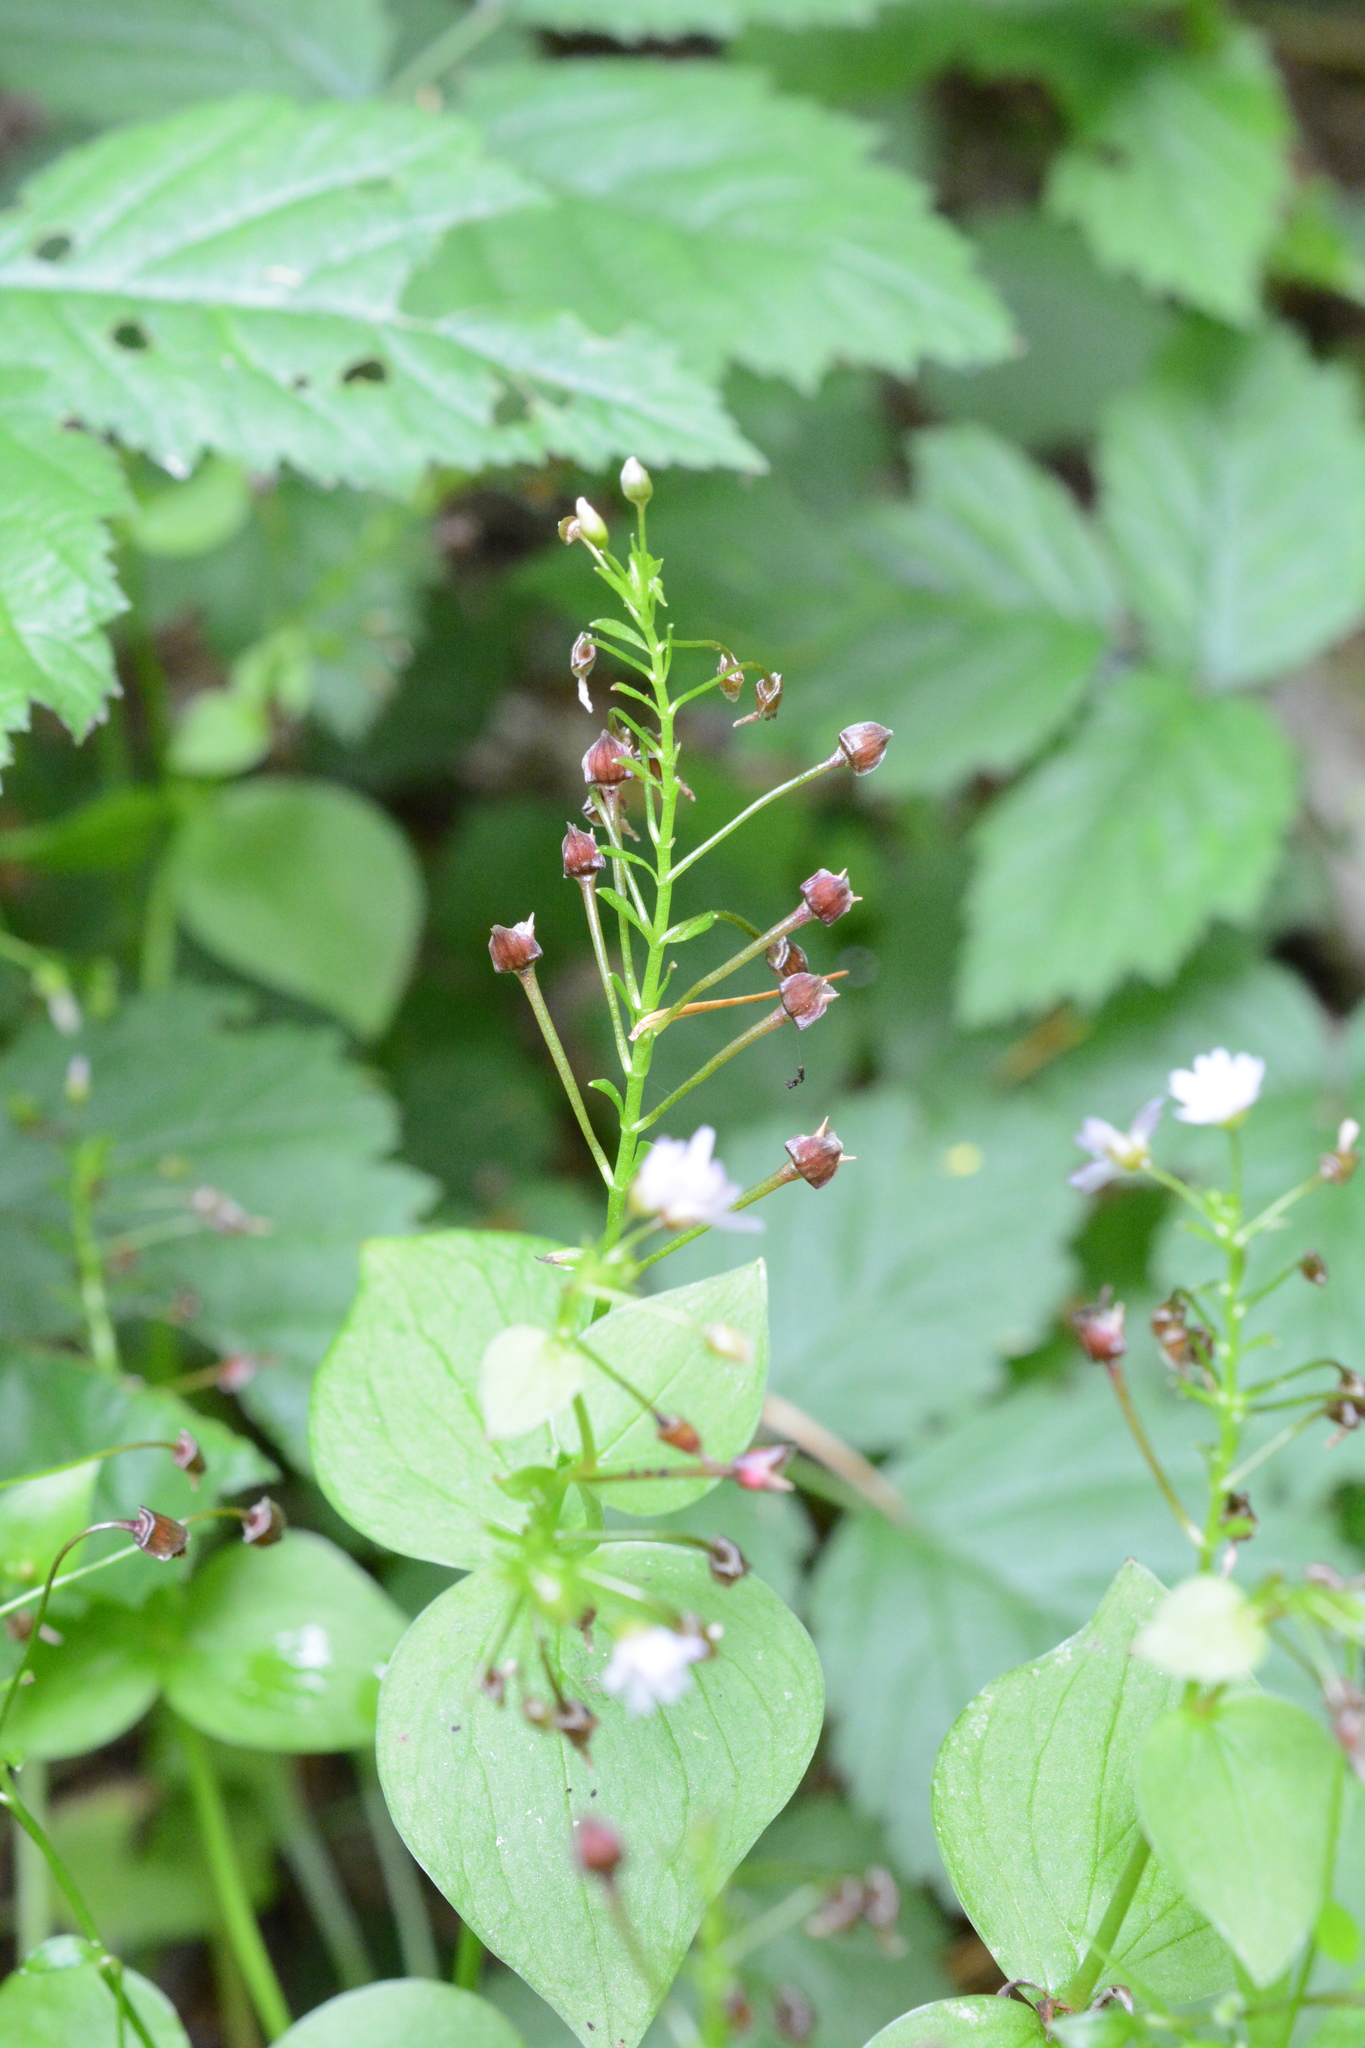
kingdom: Plantae
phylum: Tracheophyta
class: Magnoliopsida
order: Caryophyllales
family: Montiaceae
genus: Claytonia
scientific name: Claytonia sibirica
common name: Pink purslane
